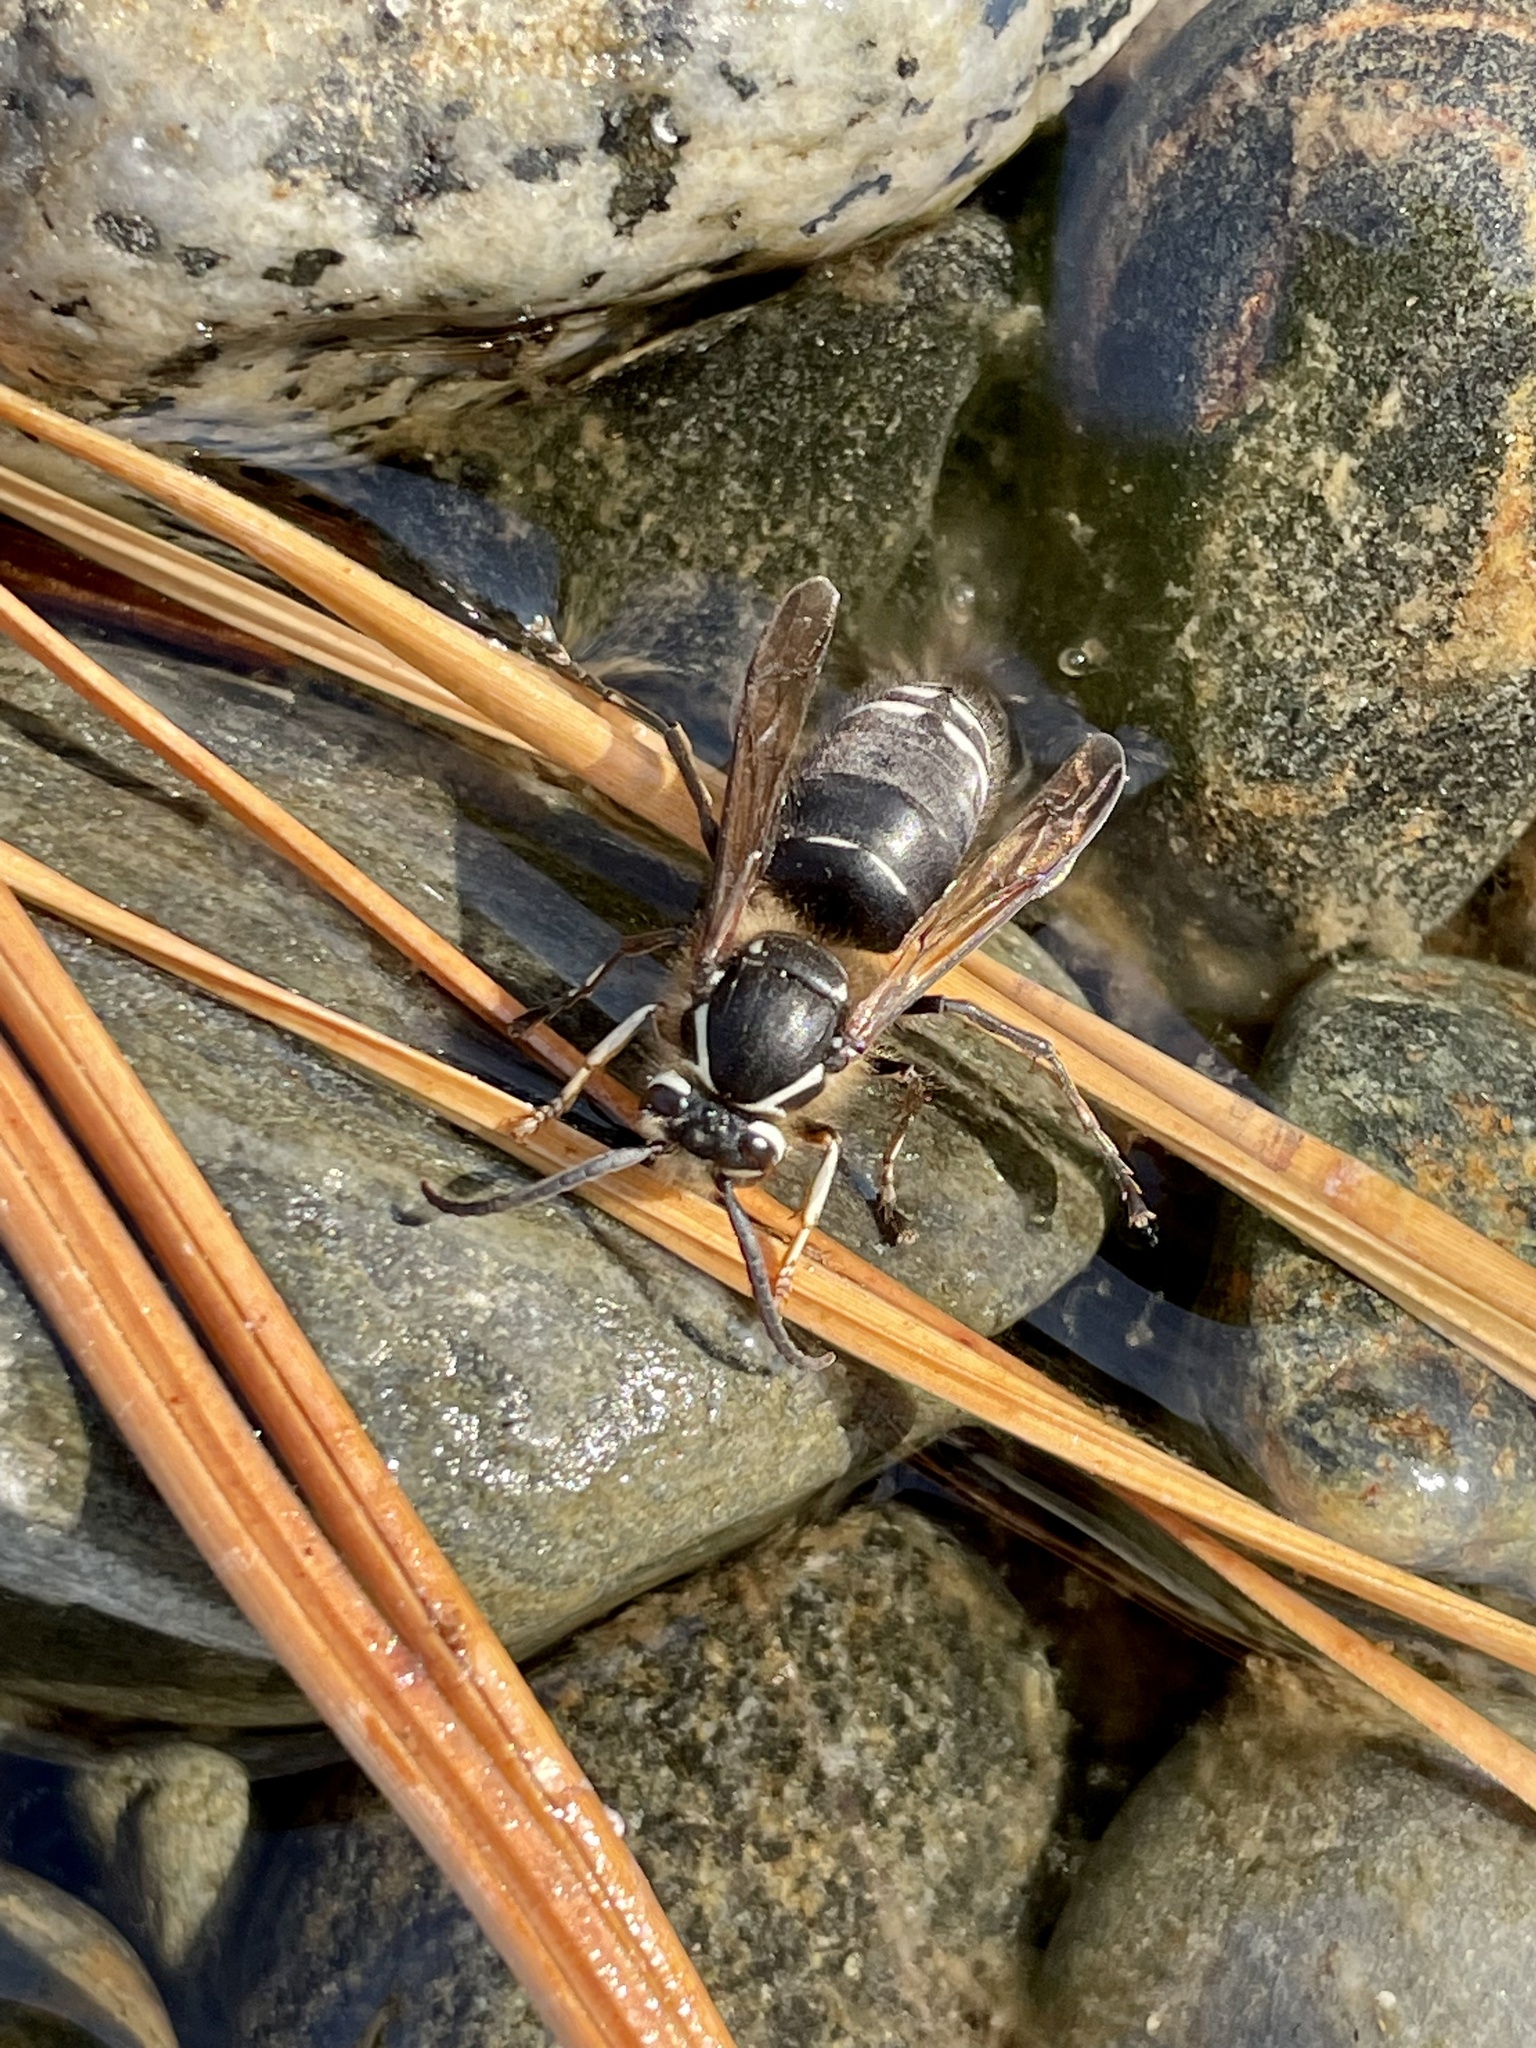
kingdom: Animalia
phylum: Arthropoda
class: Insecta
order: Hymenoptera
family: Vespidae
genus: Dolichovespula
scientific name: Dolichovespula maculata
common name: Bald-faced hornet
